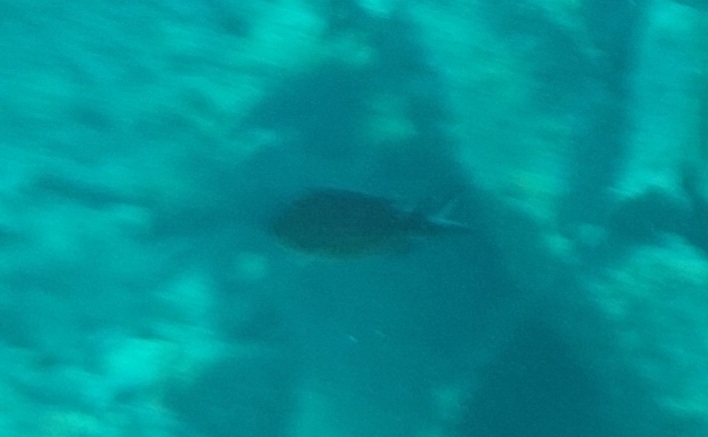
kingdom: Animalia
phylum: Chordata
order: Perciformes
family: Pomacentridae
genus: Chromis
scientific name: Chromis chromis
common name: Damselfish
